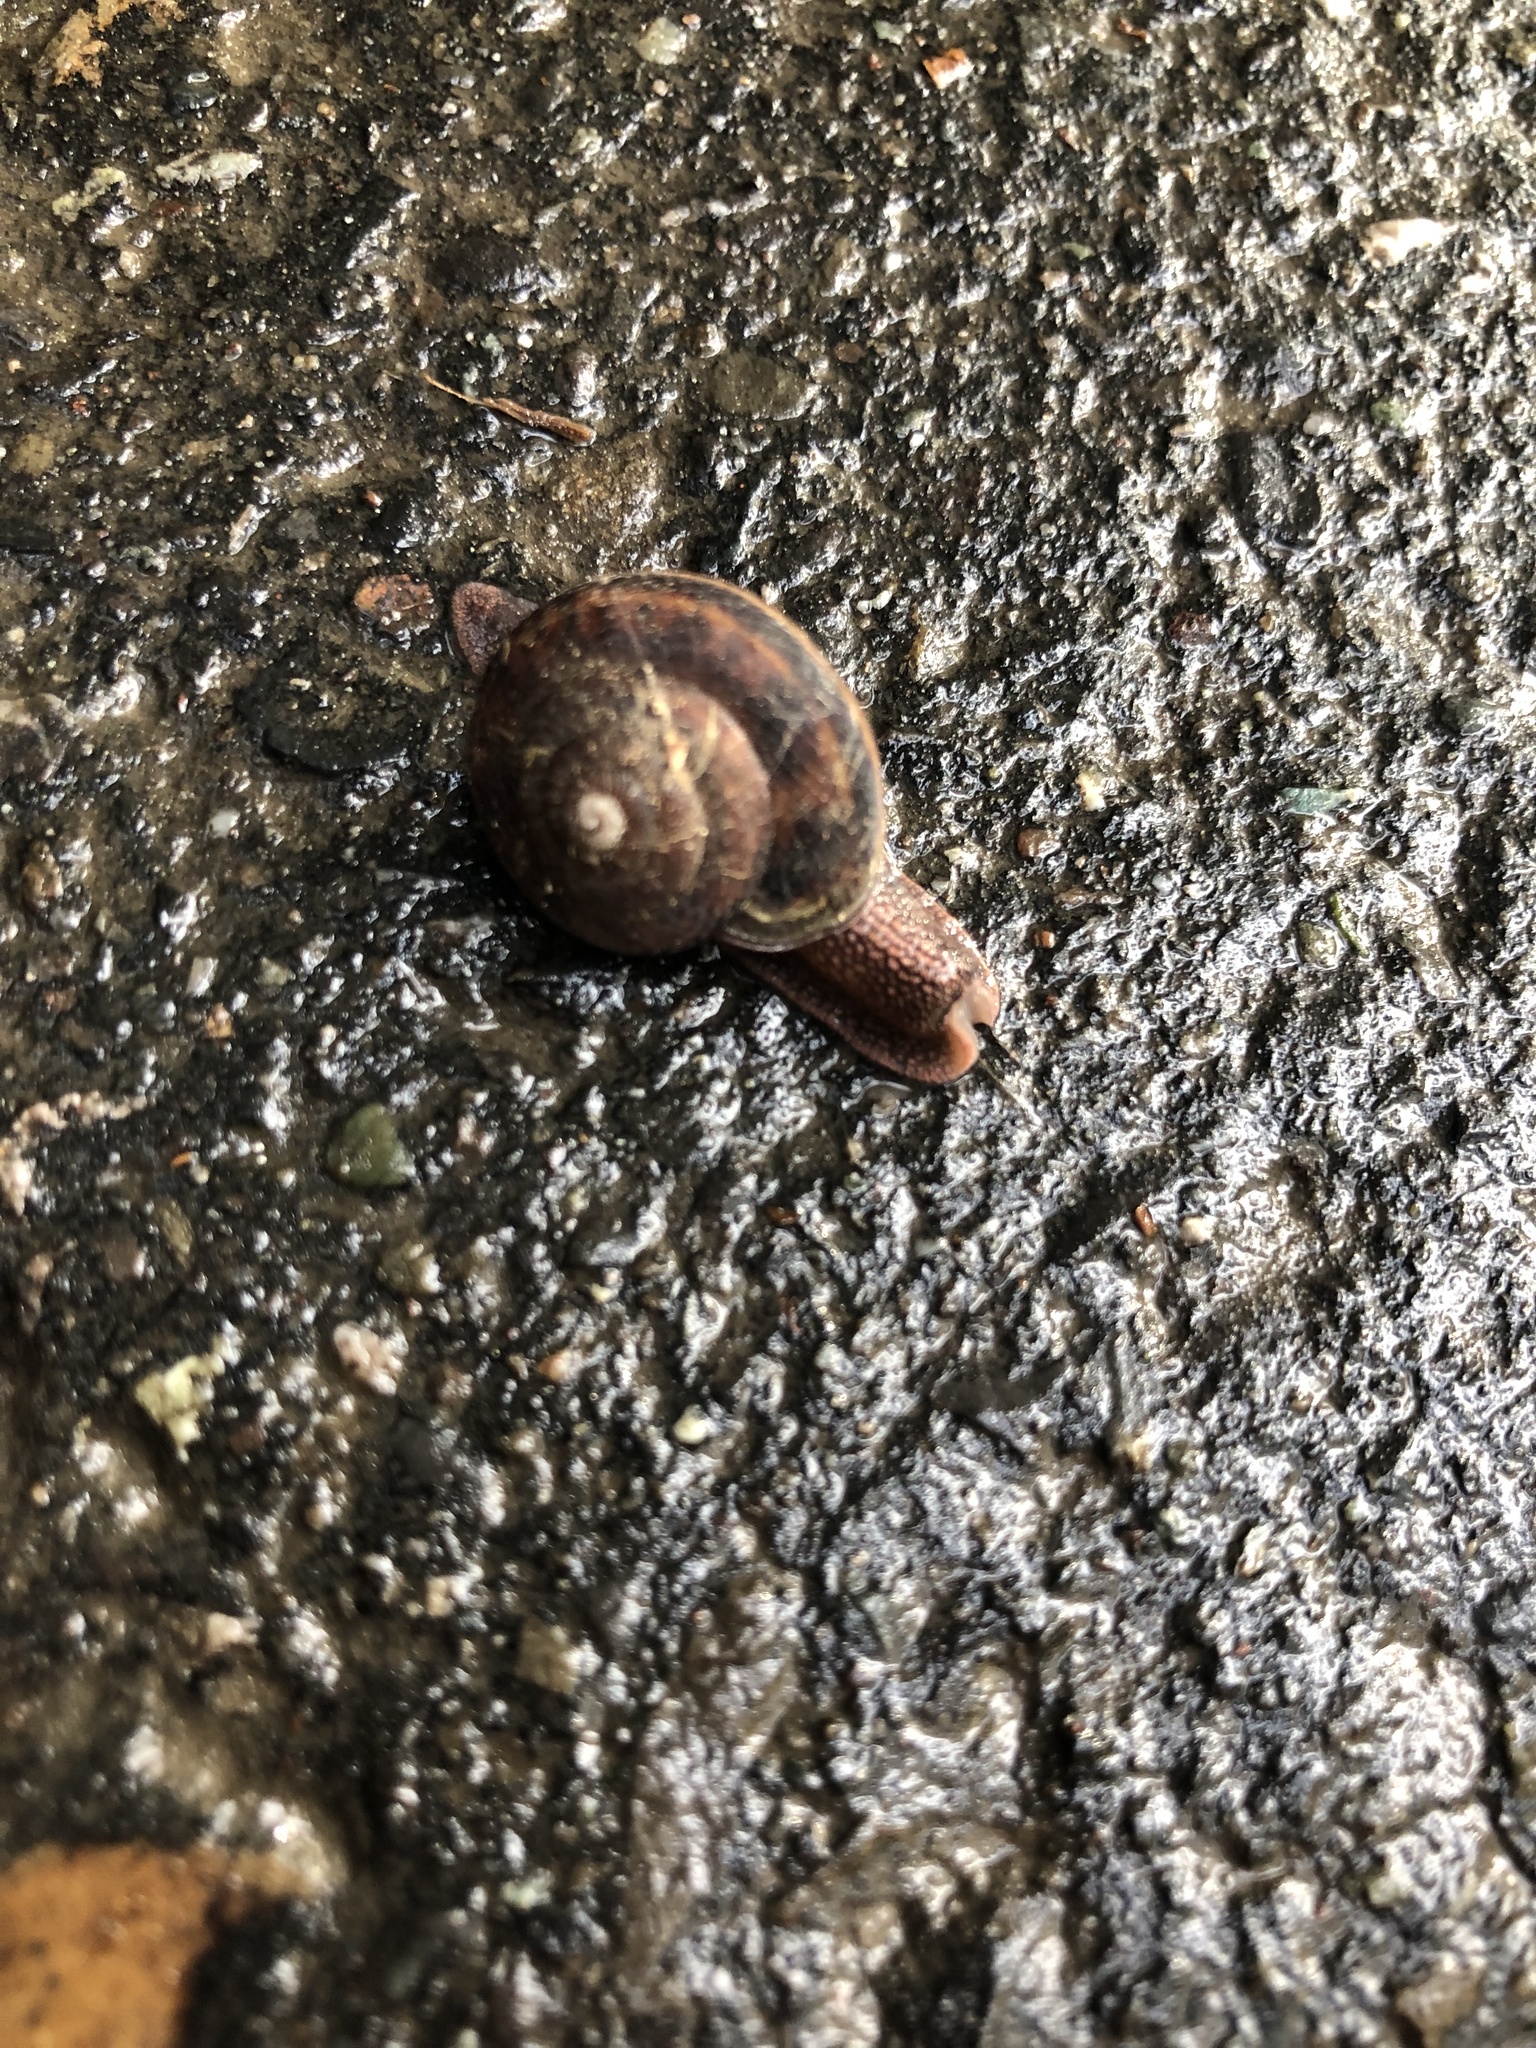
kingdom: Animalia
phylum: Mollusca
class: Gastropoda
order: Stylommatophora
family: Xanthonychidae
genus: Monadenia
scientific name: Monadenia fidelis
